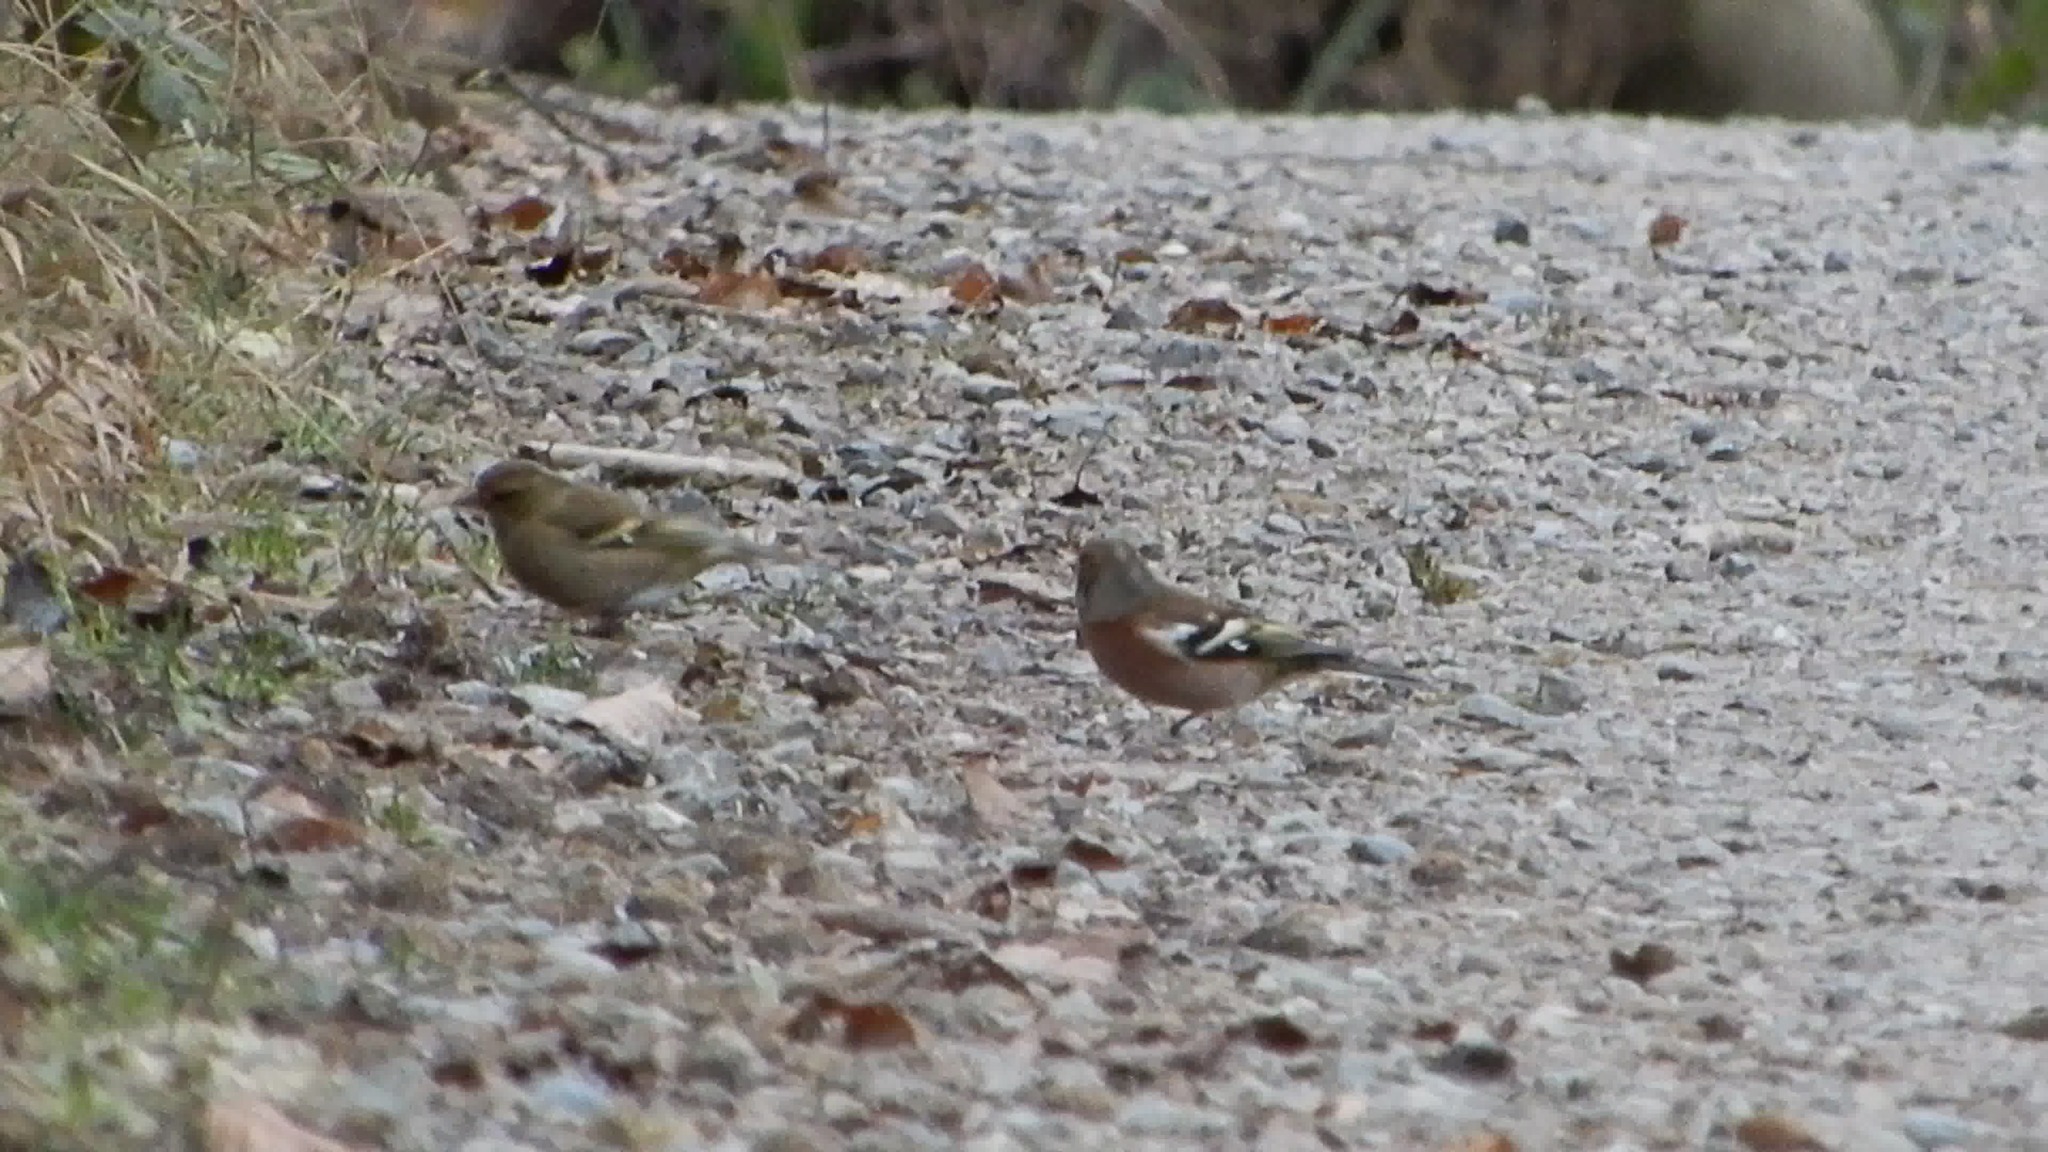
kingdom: Animalia
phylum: Chordata
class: Aves
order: Passeriformes
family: Fringillidae
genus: Fringilla
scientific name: Fringilla coelebs
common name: Common chaffinch
